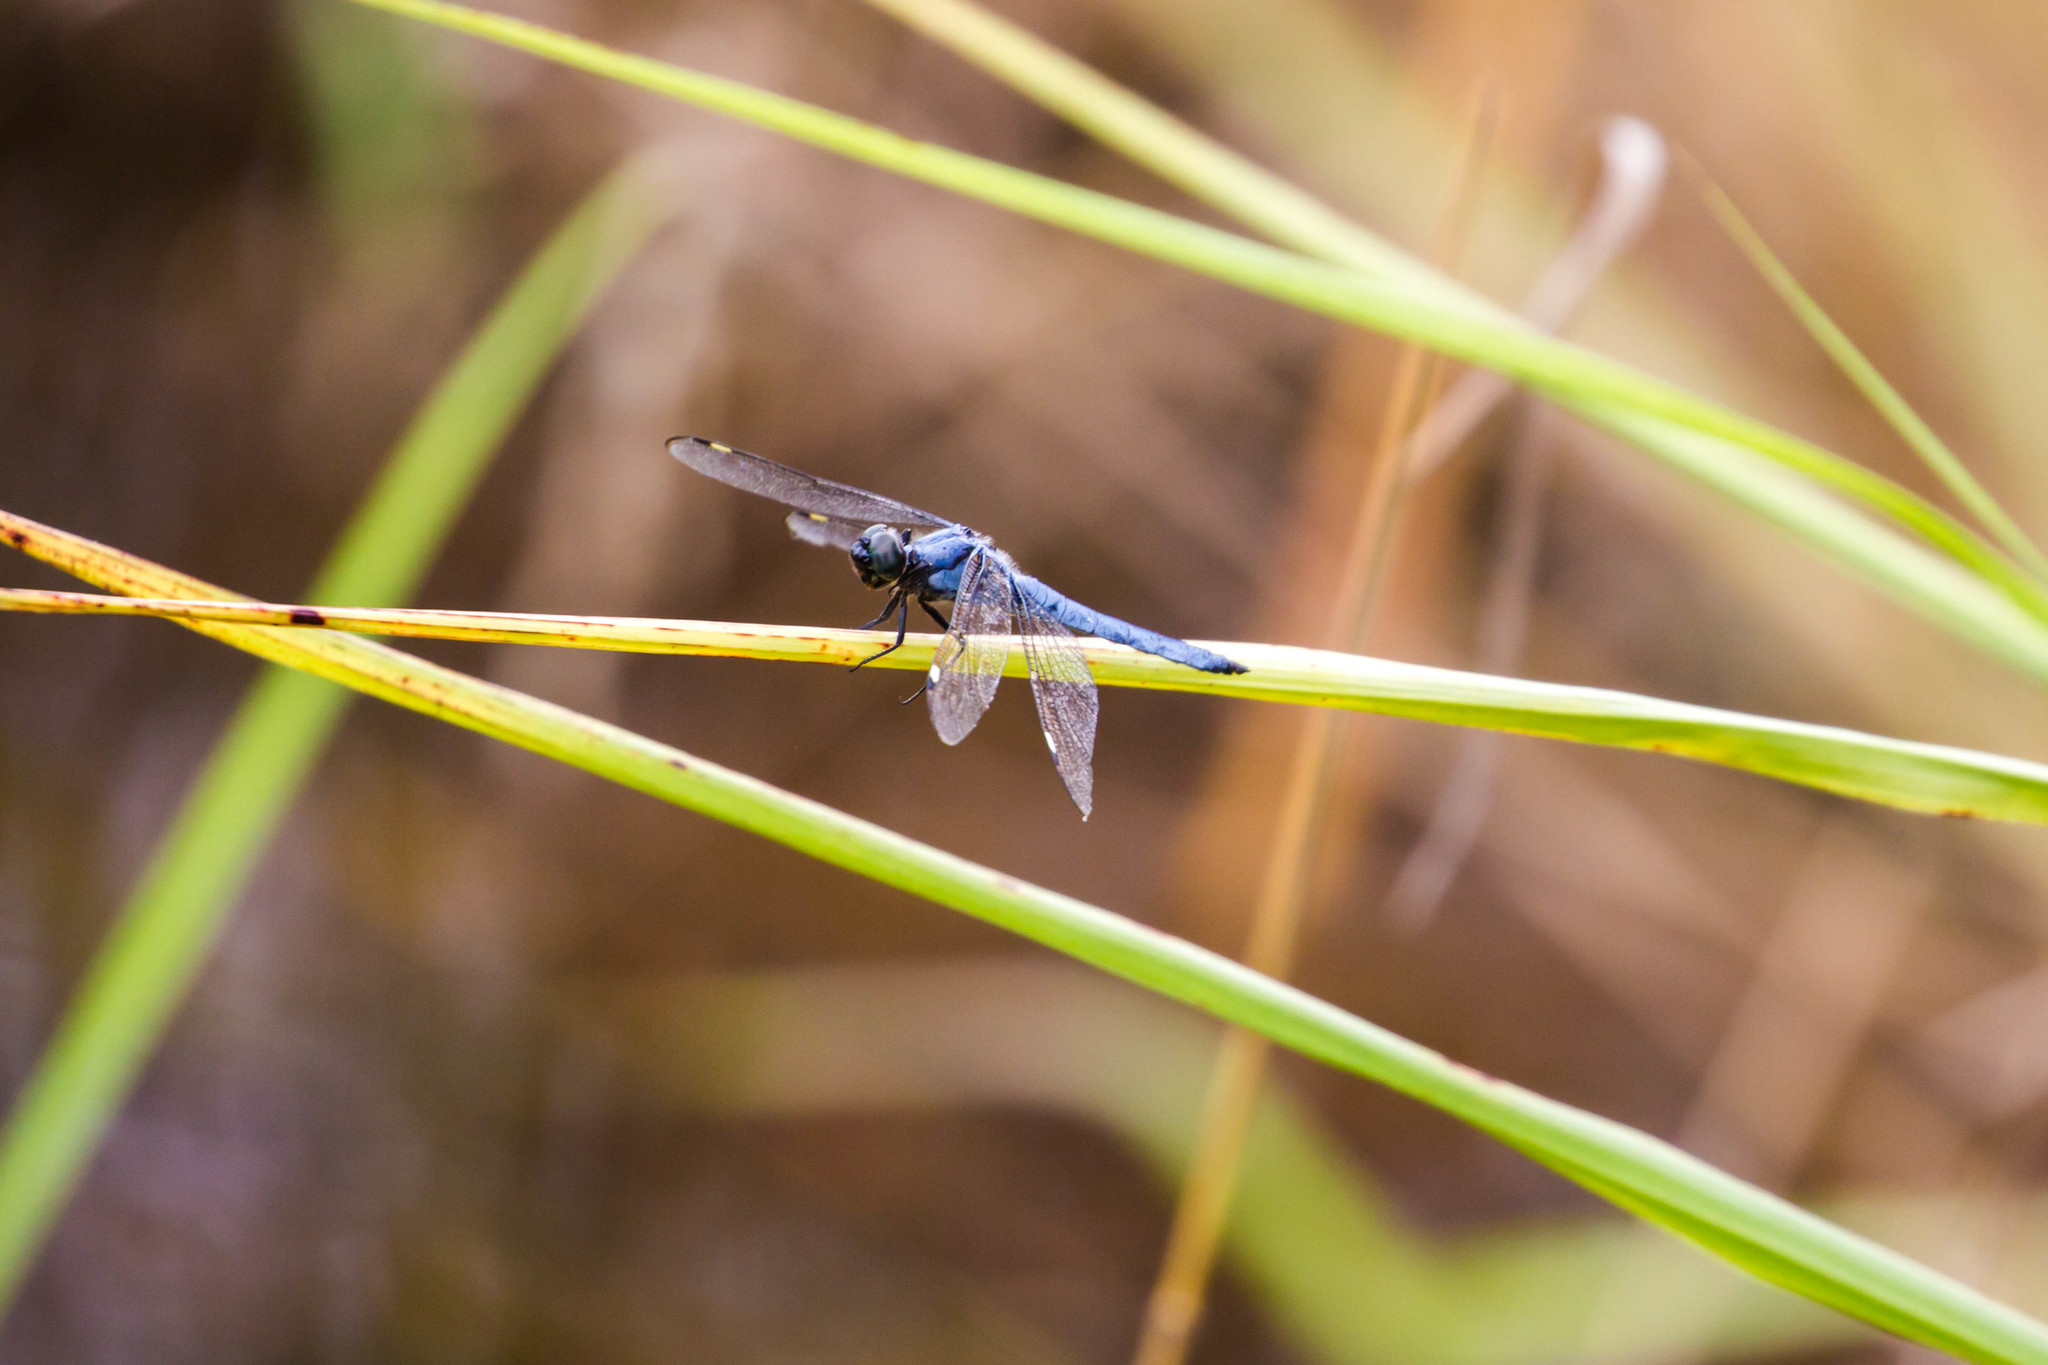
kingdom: Animalia
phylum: Arthropoda
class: Insecta
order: Odonata
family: Libellulidae
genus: Libellula
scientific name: Libellula cyanea
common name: Spangled skimmer
